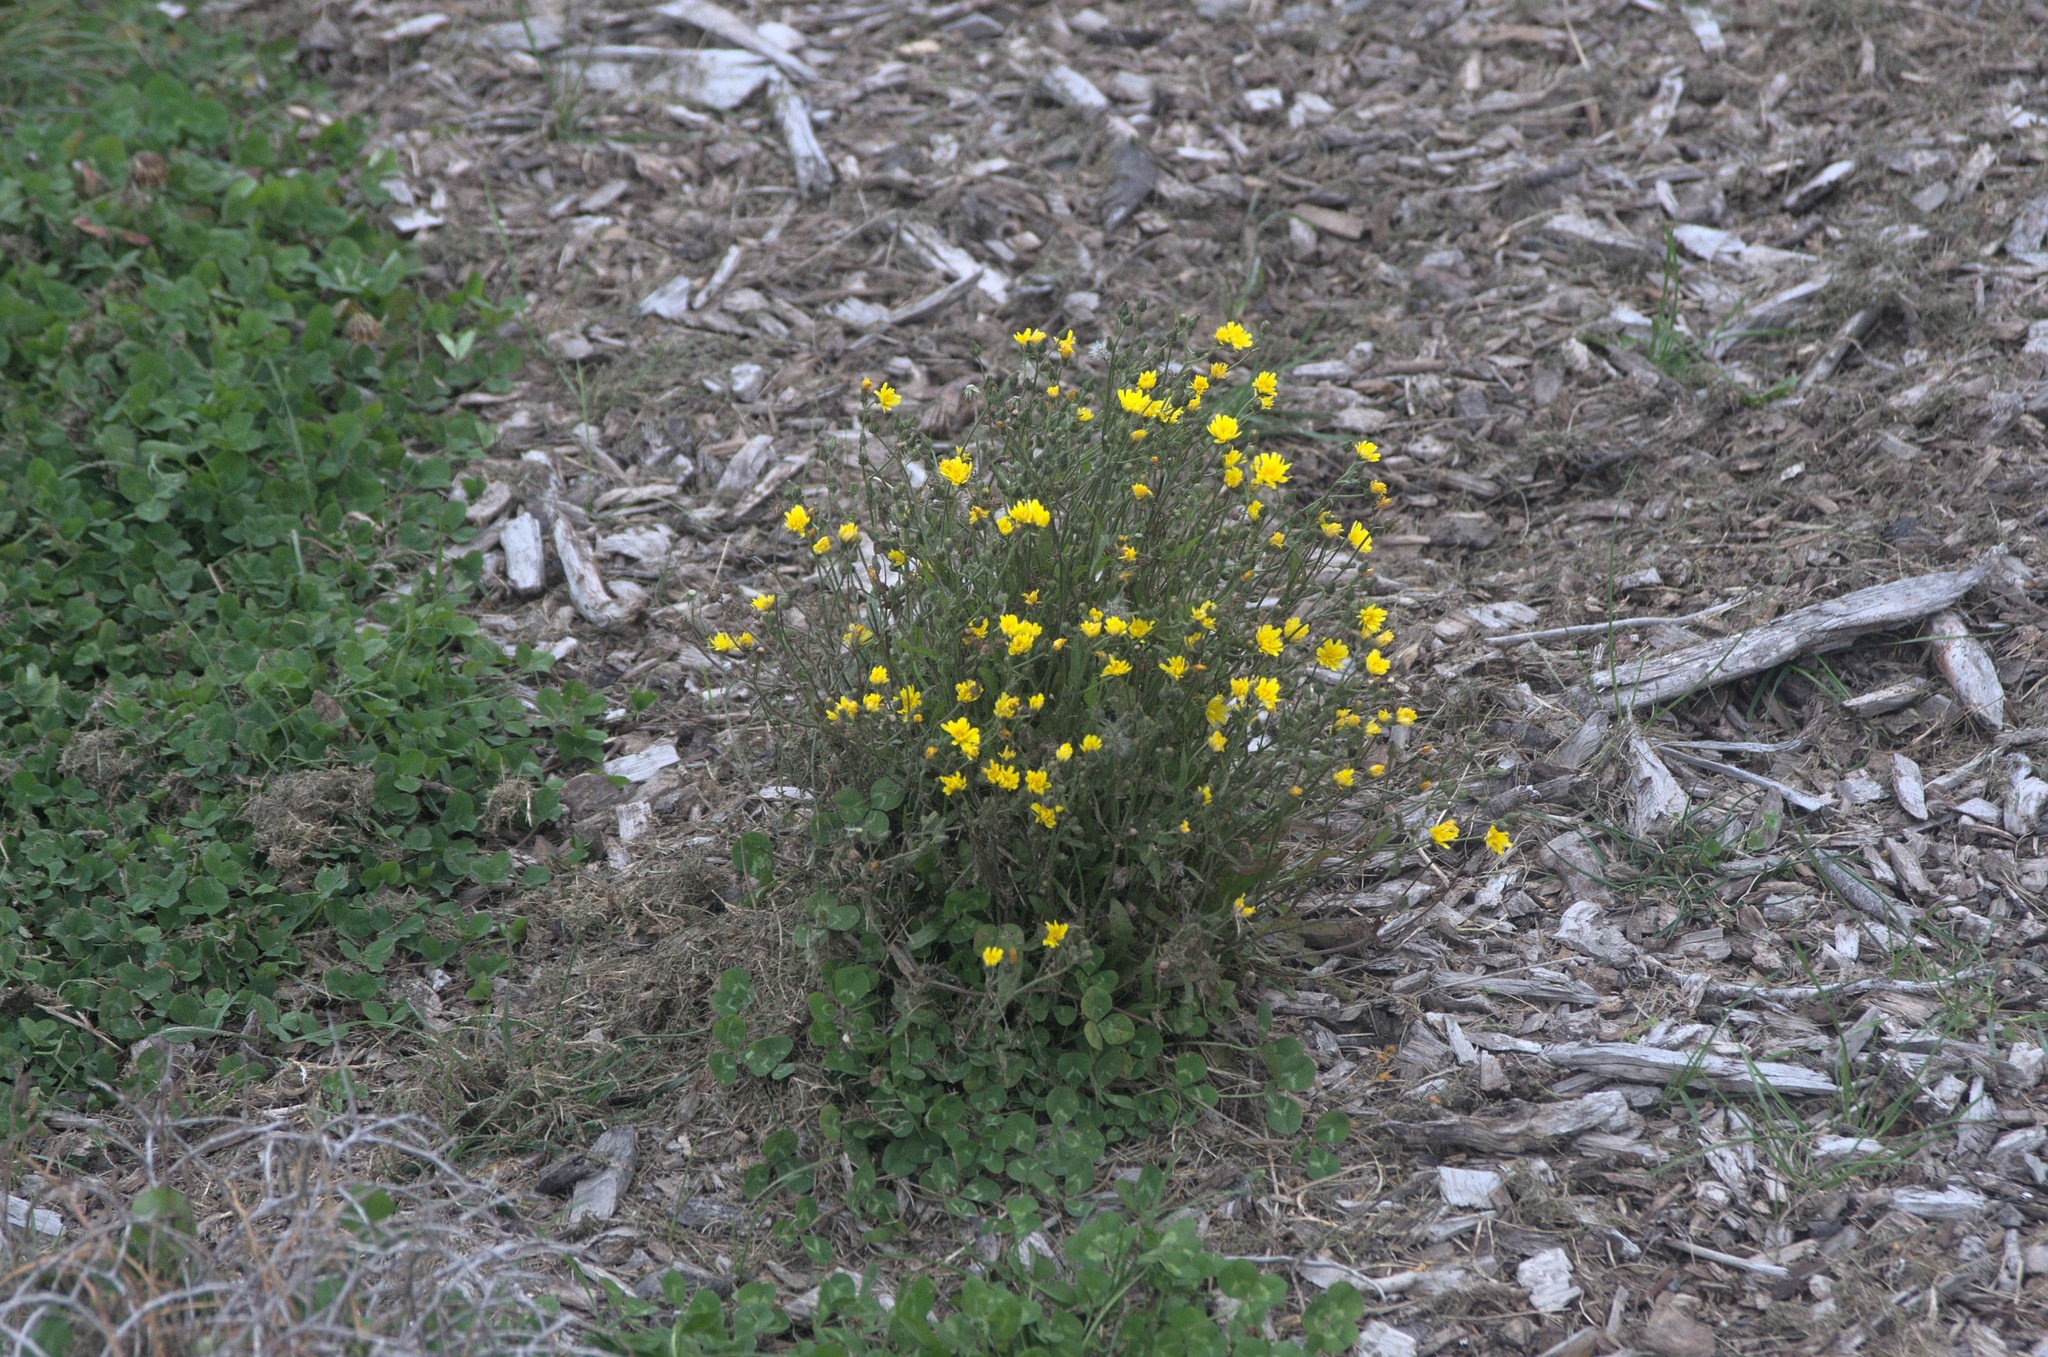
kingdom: Plantae
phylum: Tracheophyta
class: Magnoliopsida
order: Asterales
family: Asteraceae
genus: Crepis
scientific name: Crepis capillaris
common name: Smooth hawksbeard
